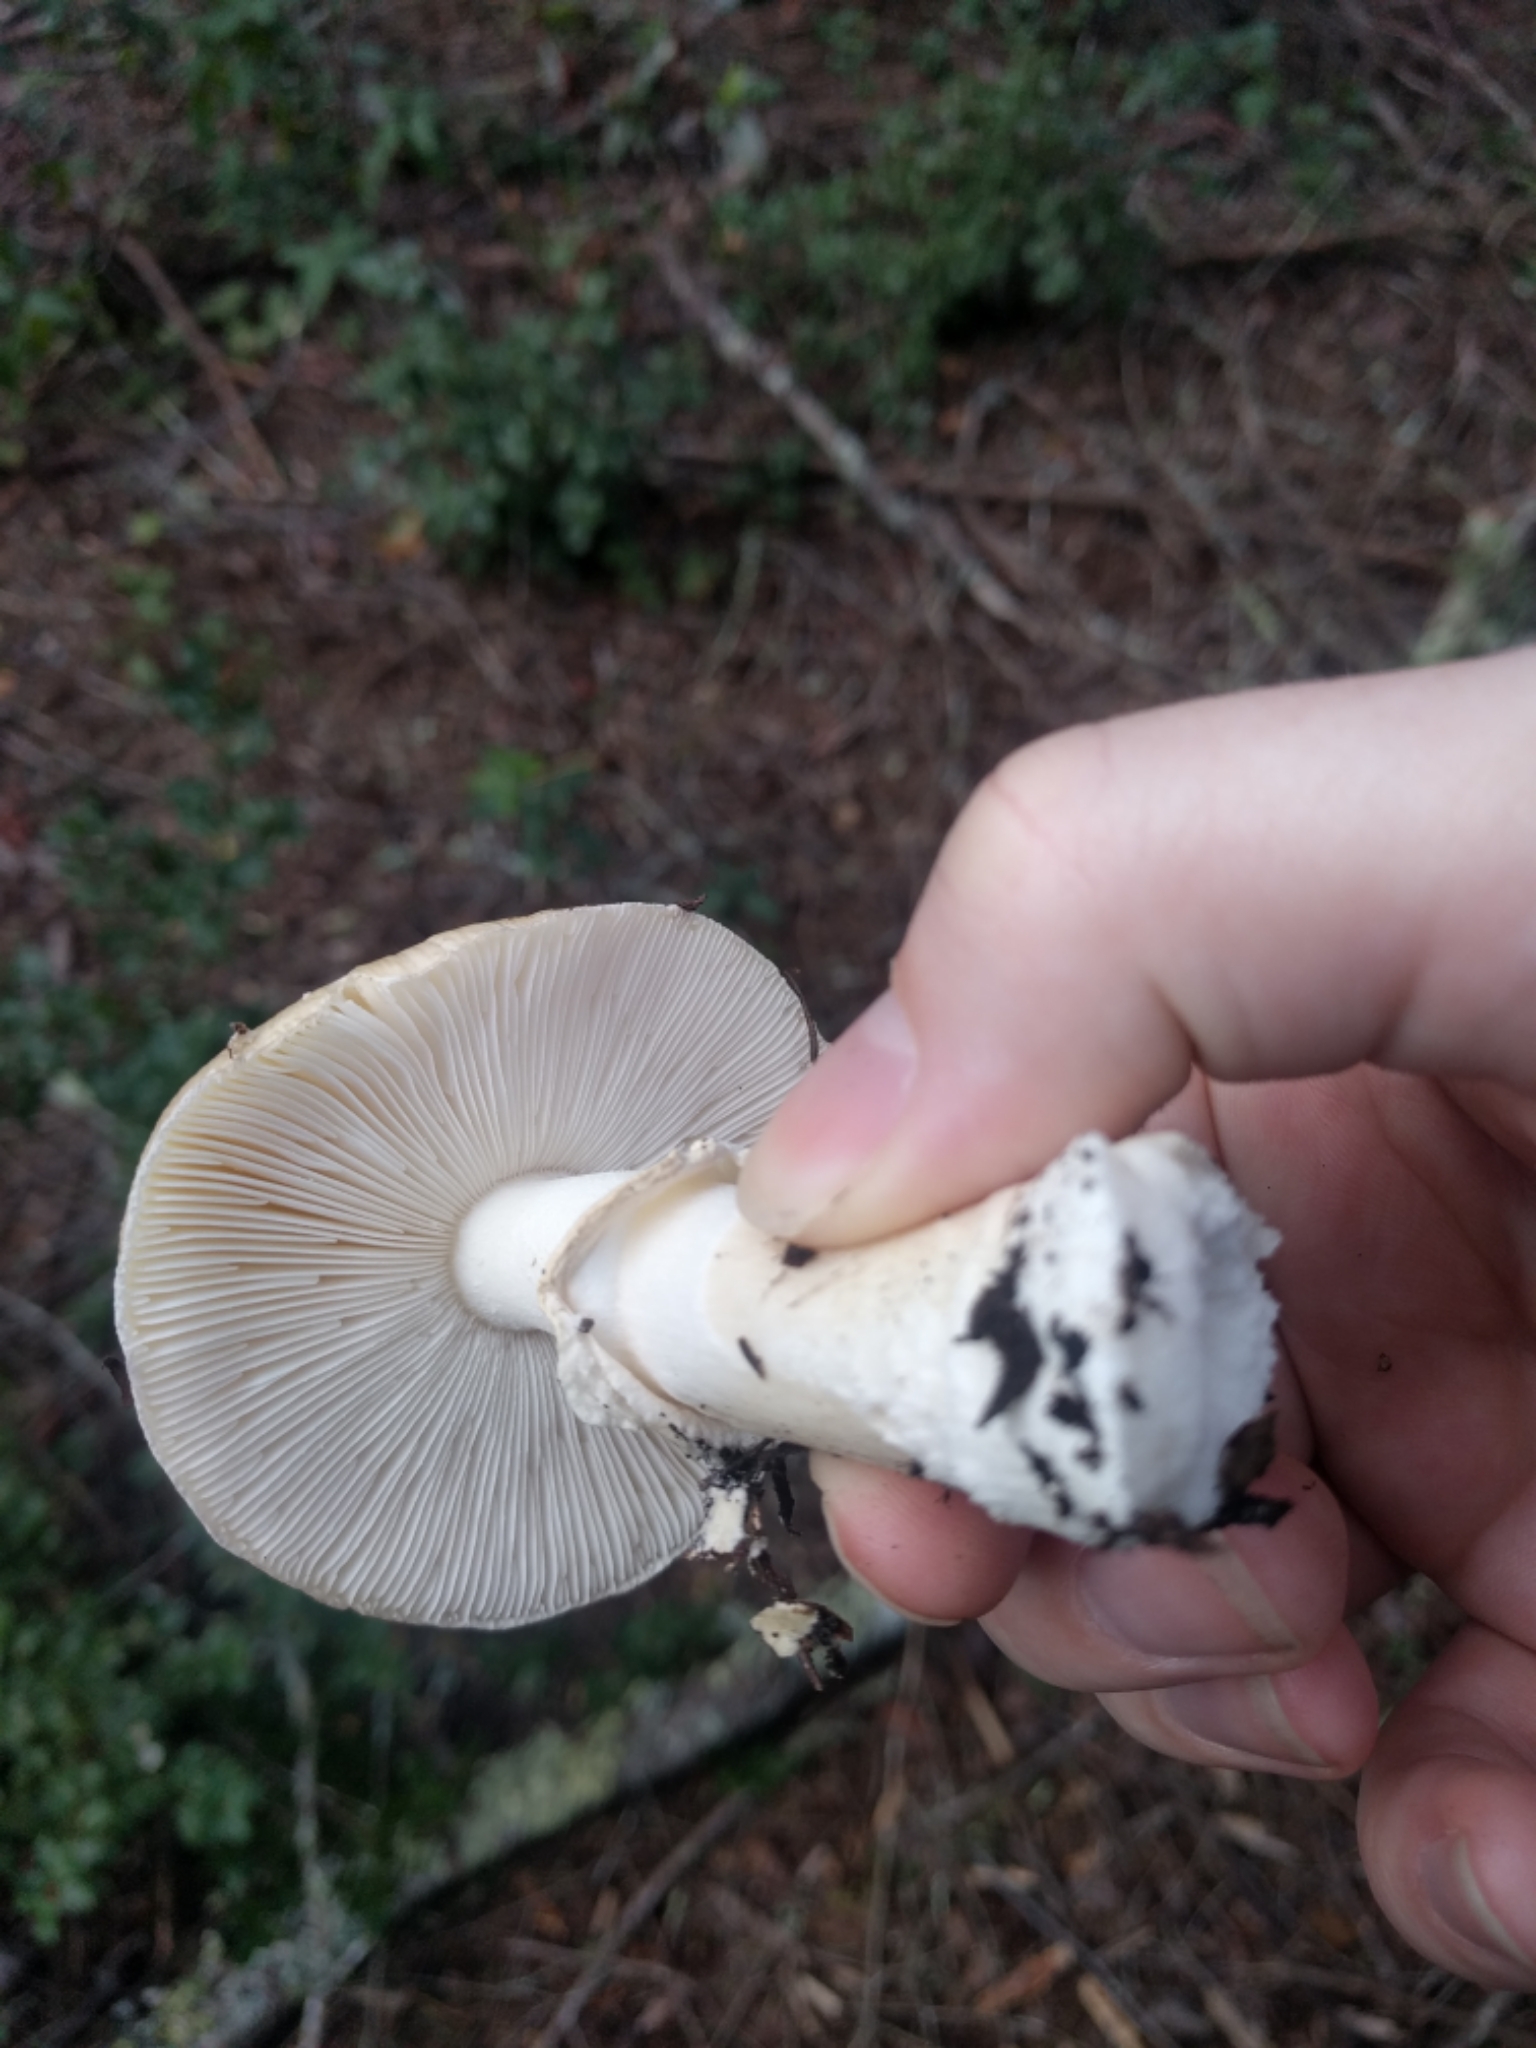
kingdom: Fungi
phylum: Basidiomycota
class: Agaricomycetes
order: Agaricales
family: Amanitaceae
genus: Amanita
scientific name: Amanita pantherina
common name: Panthercap
